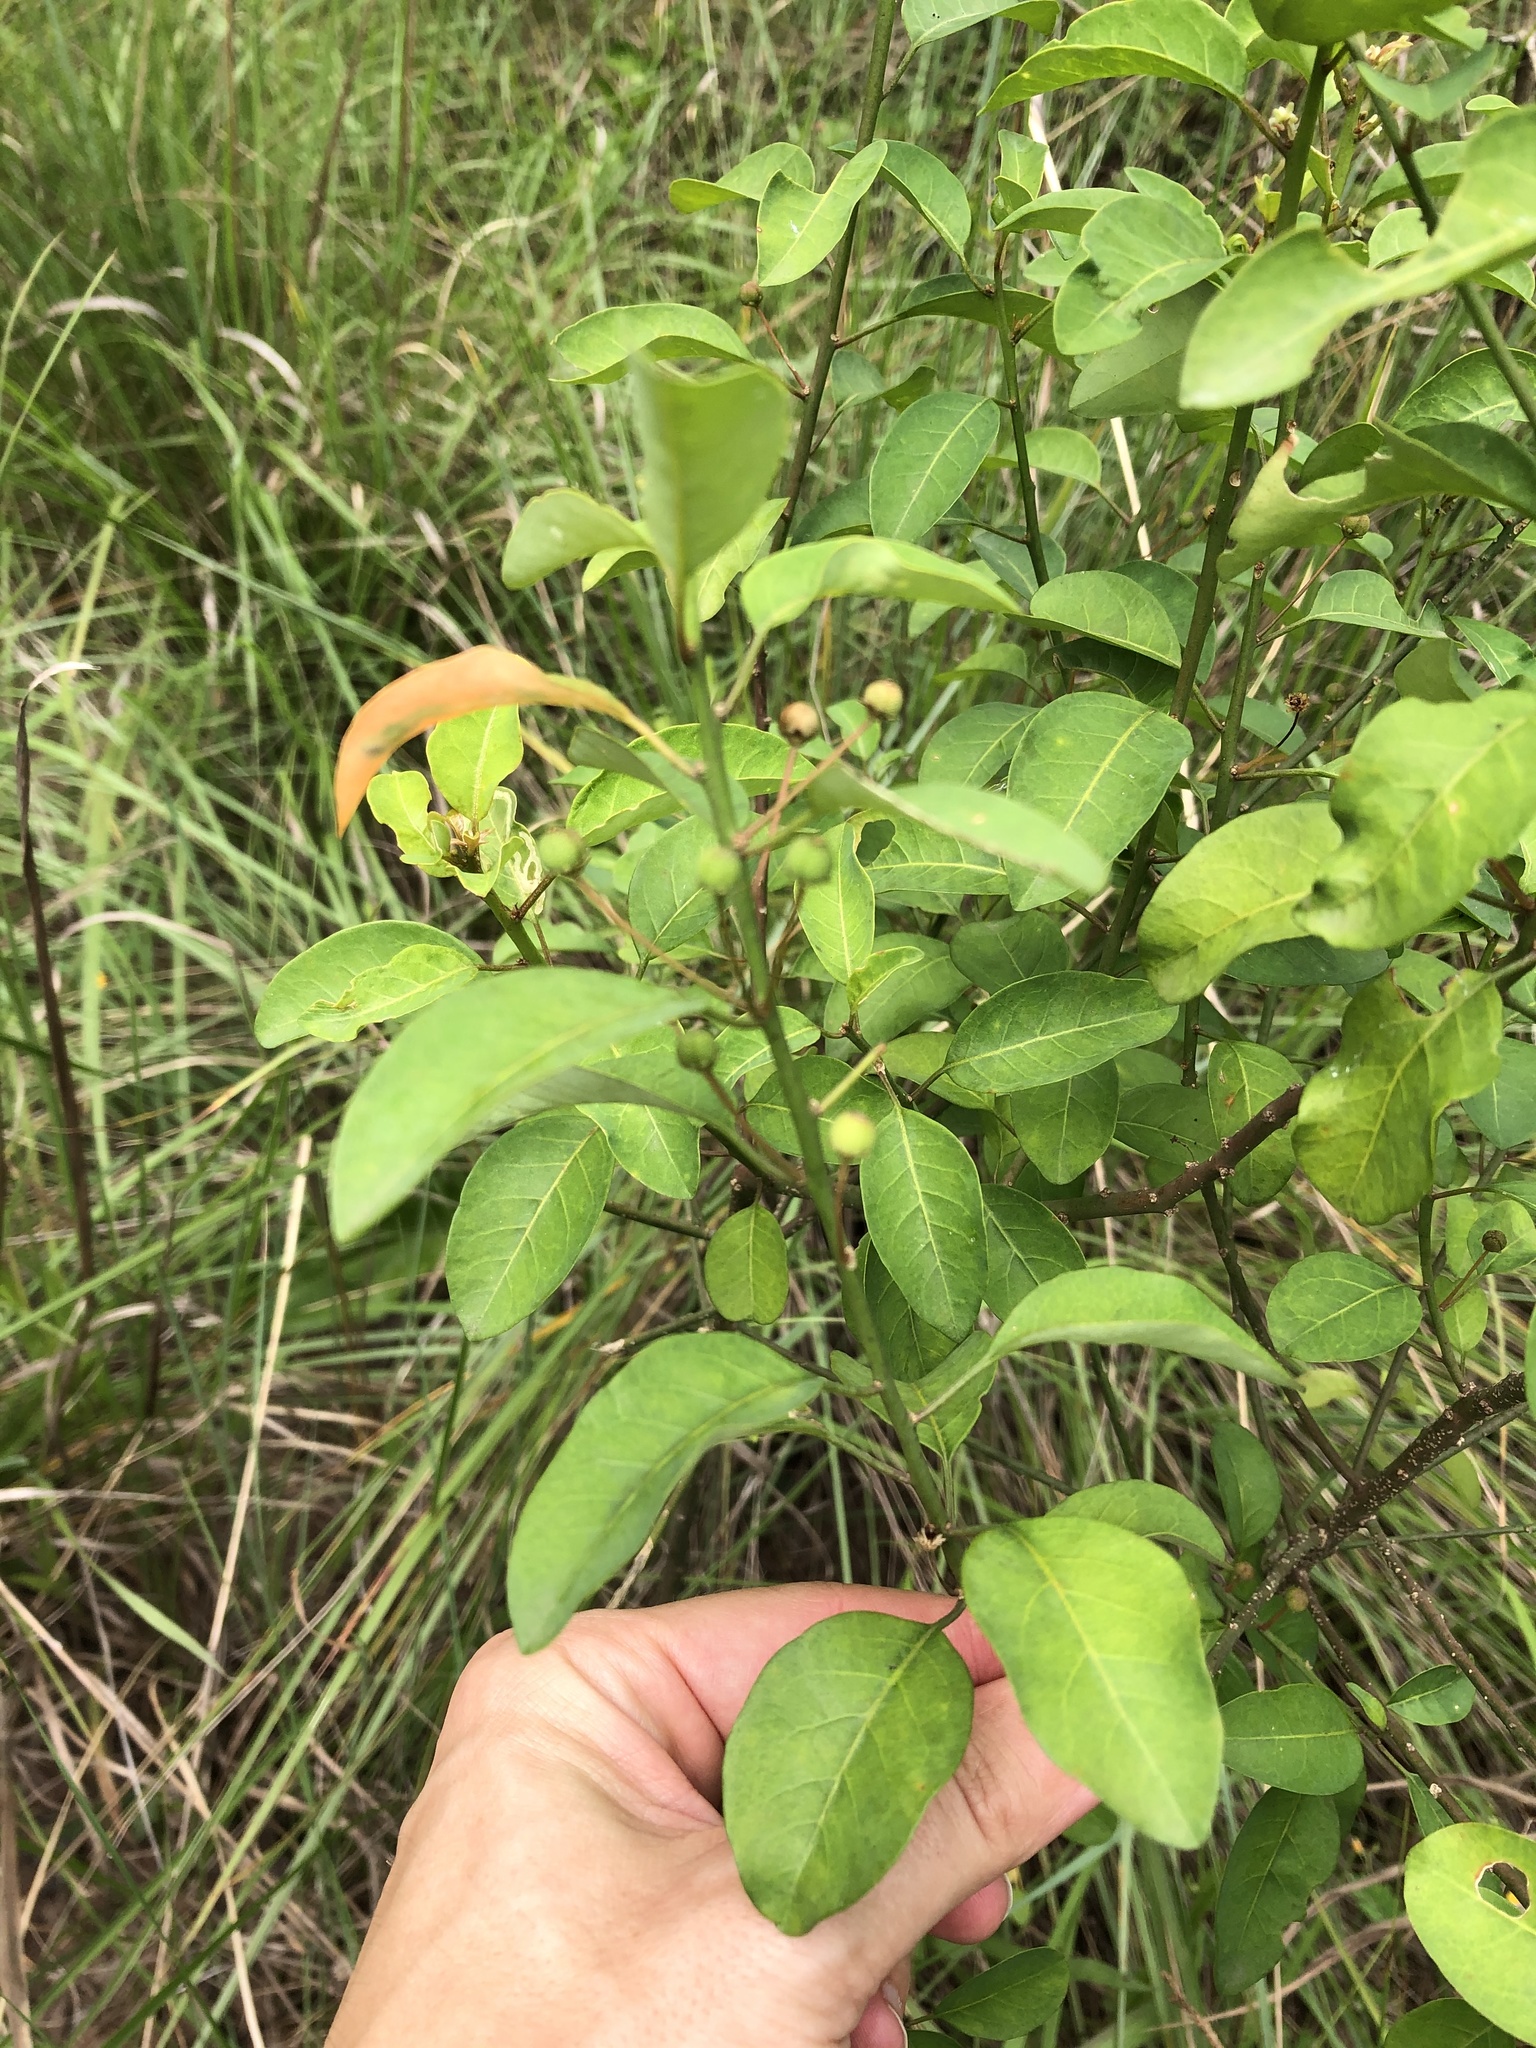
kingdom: Plantae
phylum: Tracheophyta
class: Magnoliopsida
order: Malpighiales
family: Peraceae
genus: Clutia
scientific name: Clutia pulchella
